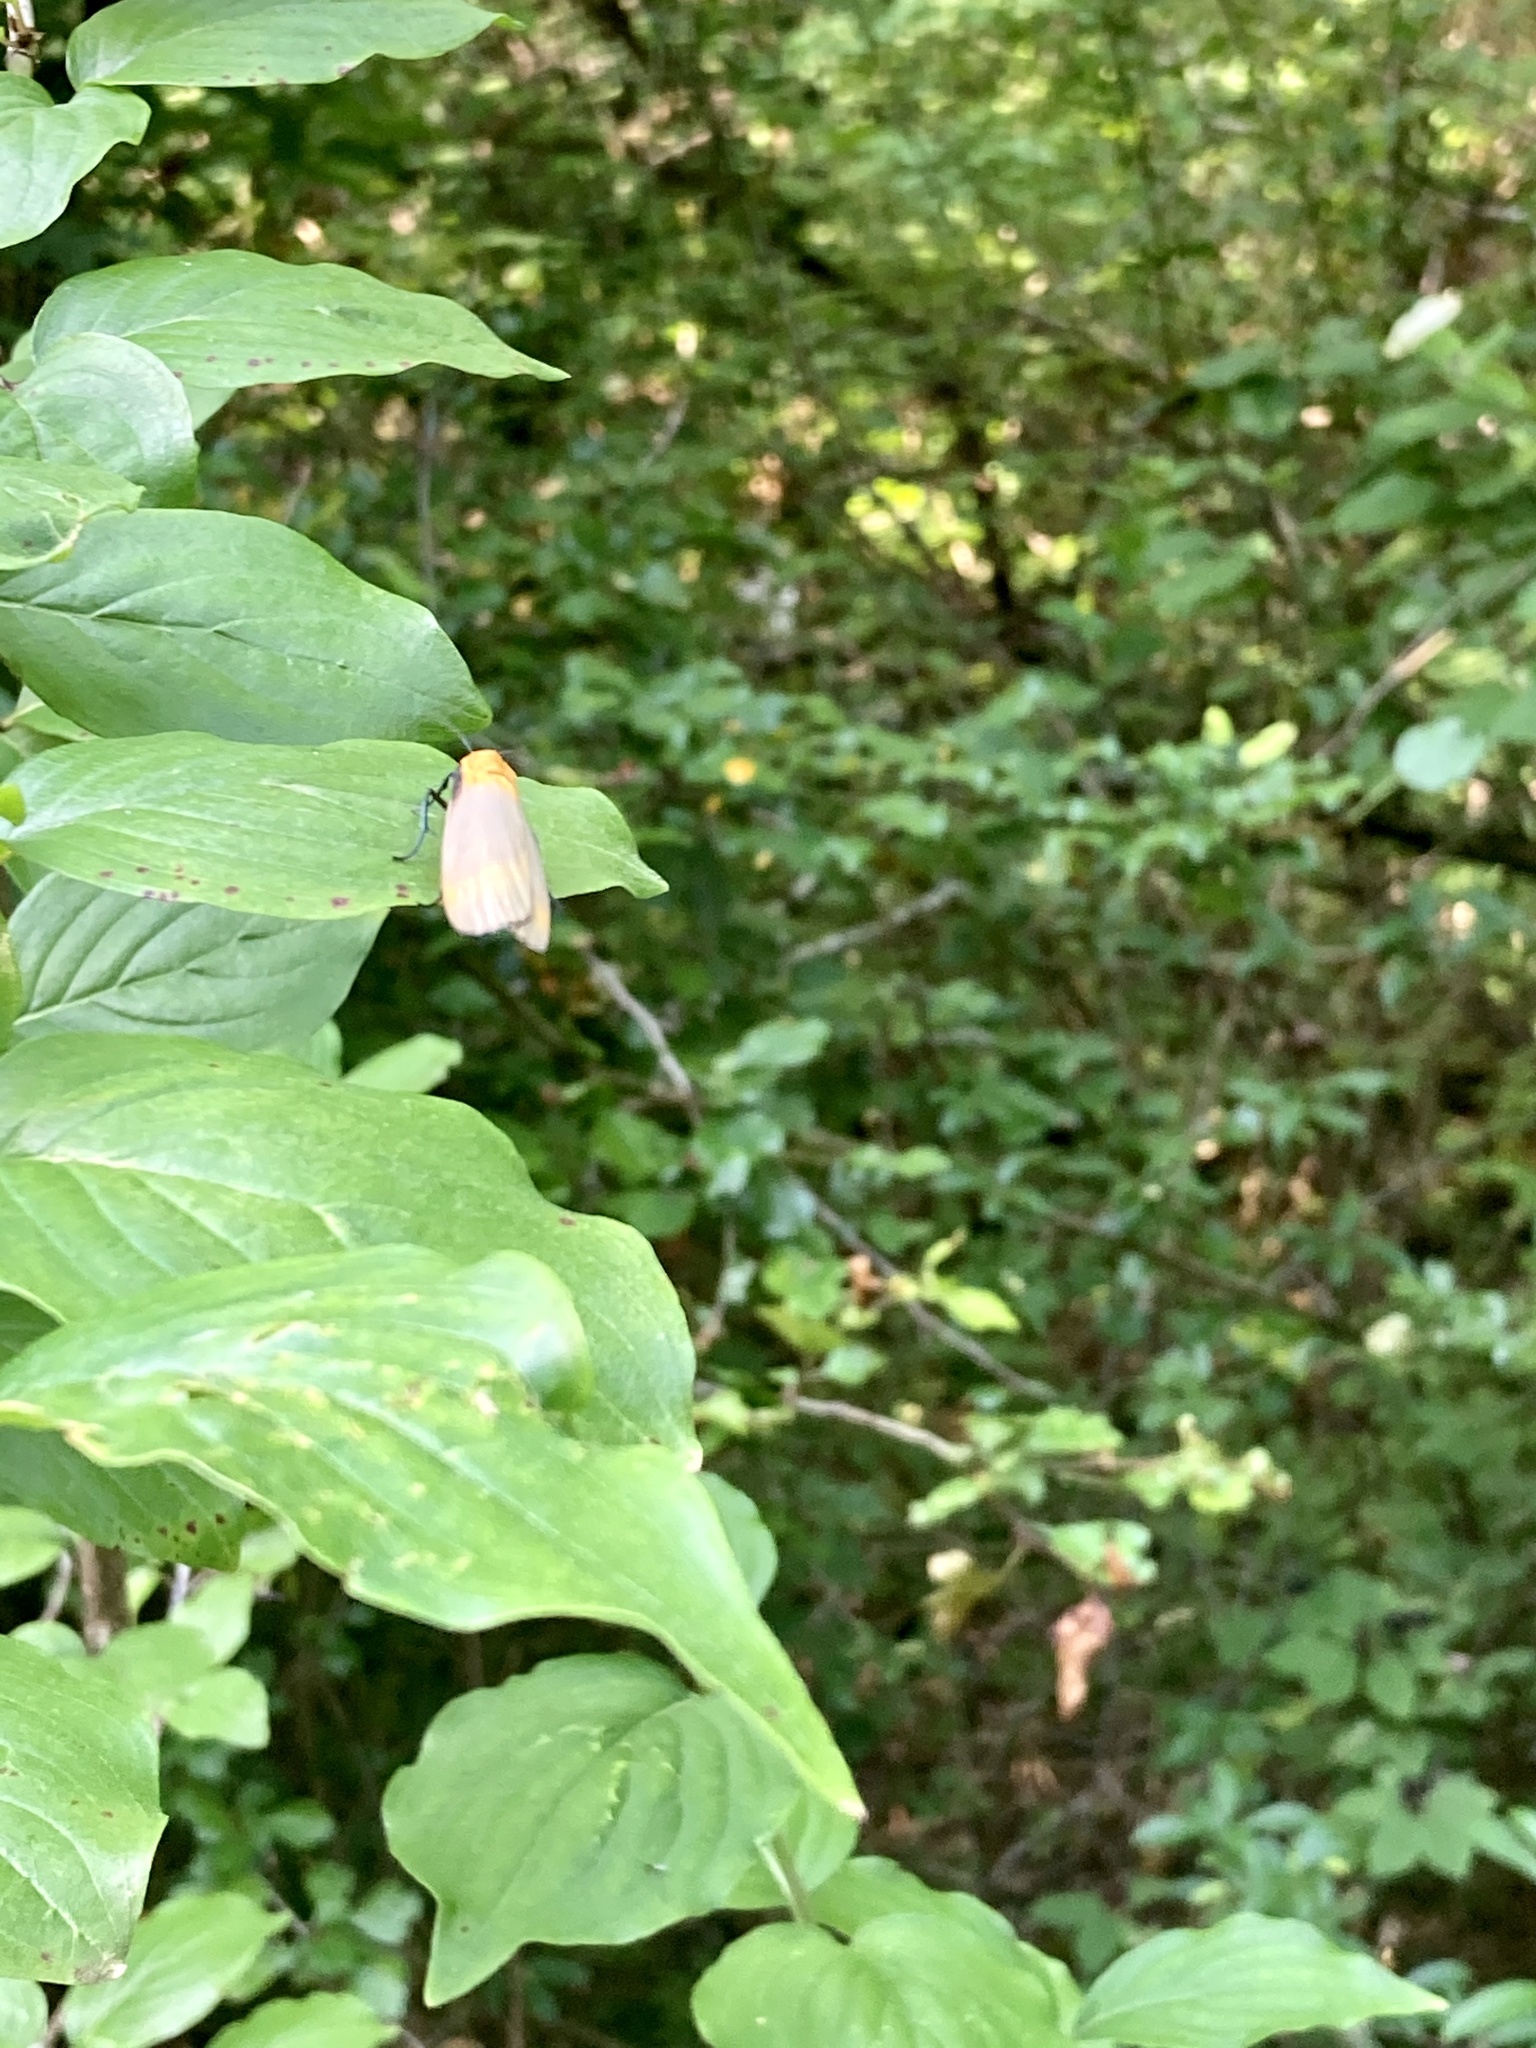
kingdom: Animalia
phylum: Arthropoda
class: Insecta
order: Lepidoptera
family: Erebidae
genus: Lithosia
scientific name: Lithosia quadra
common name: Four-spotted footman
